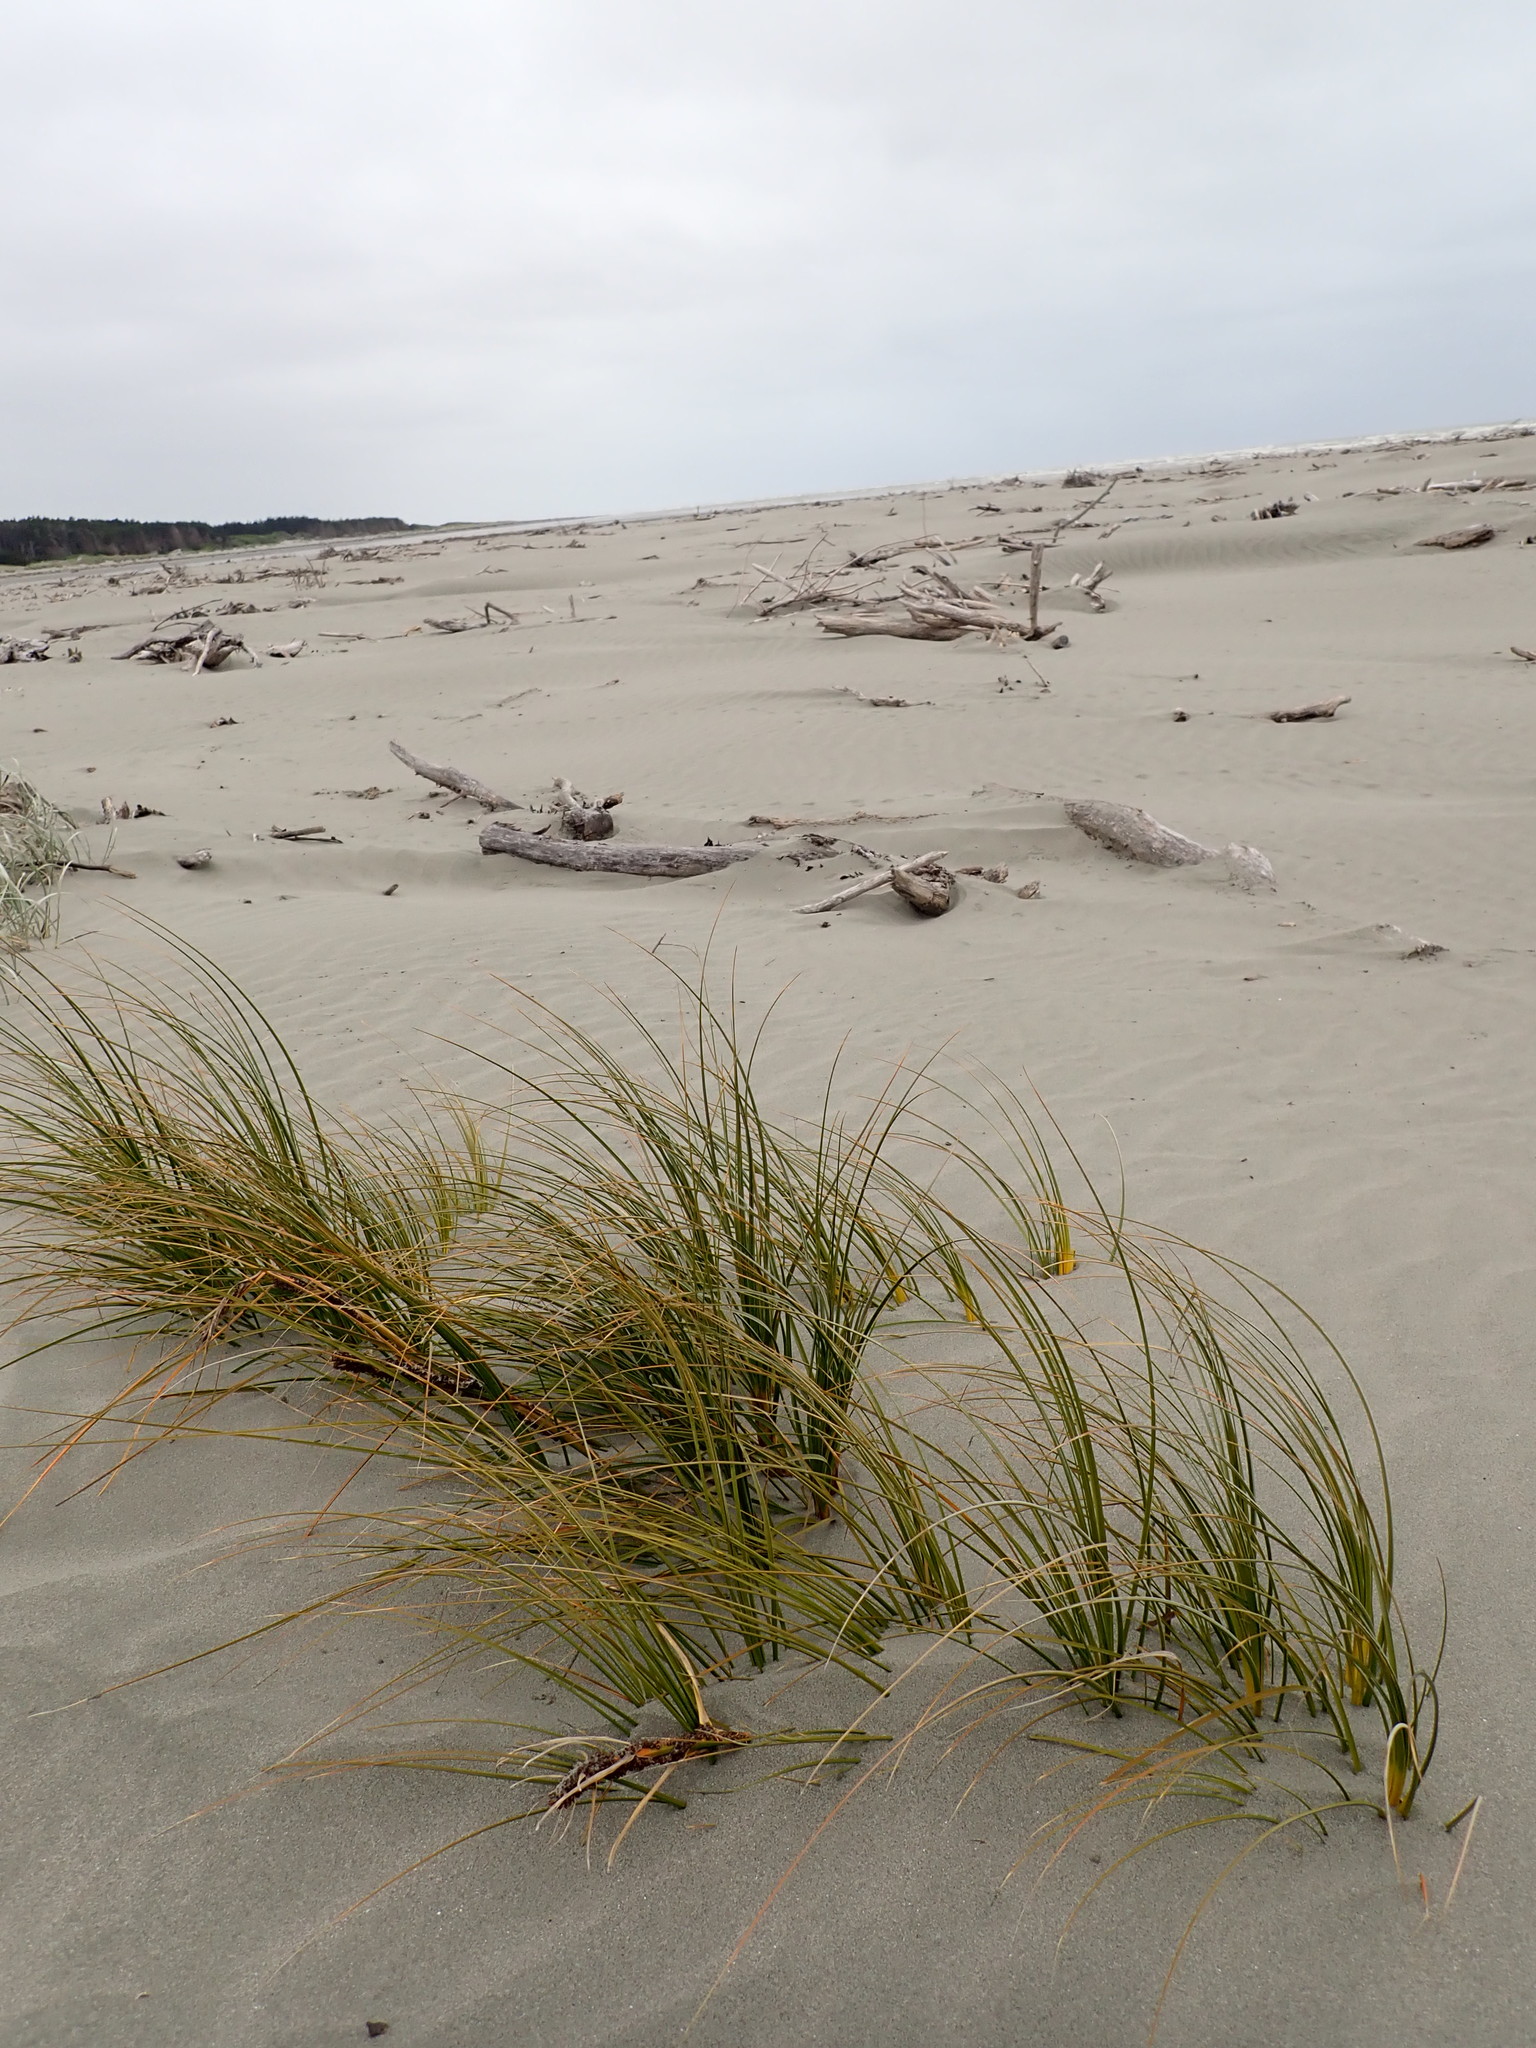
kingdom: Plantae
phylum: Tracheophyta
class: Liliopsida
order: Poales
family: Cyperaceae
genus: Ficinia
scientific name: Ficinia spiralis
